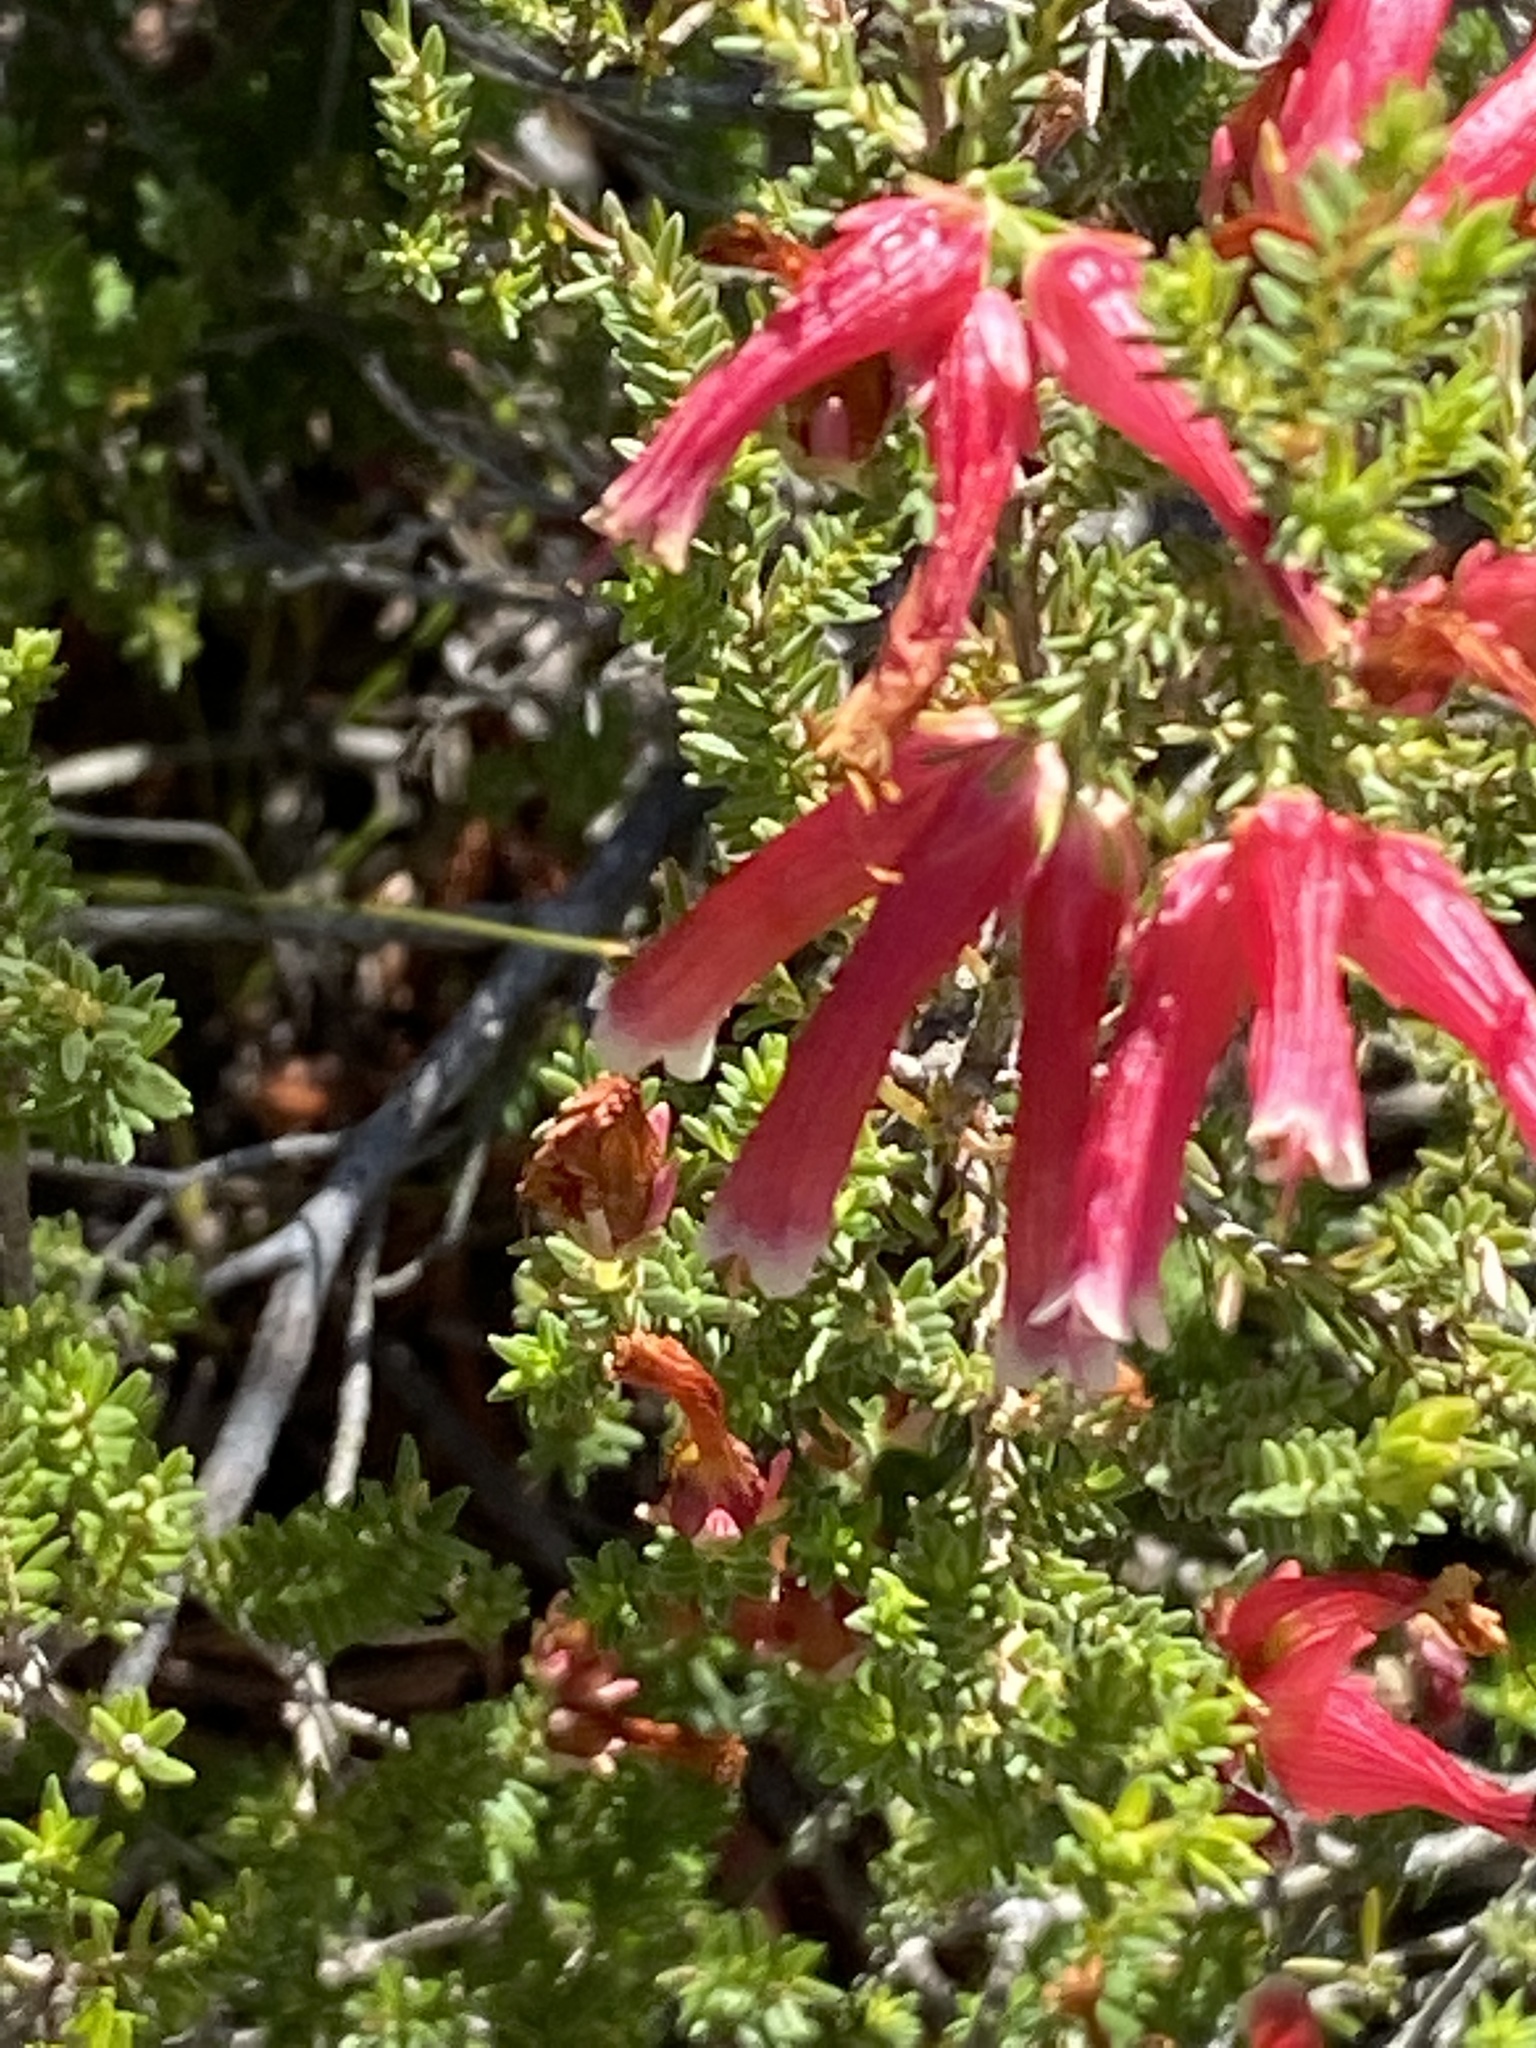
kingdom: Plantae
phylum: Tracheophyta
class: Magnoliopsida
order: Ericales
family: Ericaceae
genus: Erica
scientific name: Erica discolor
